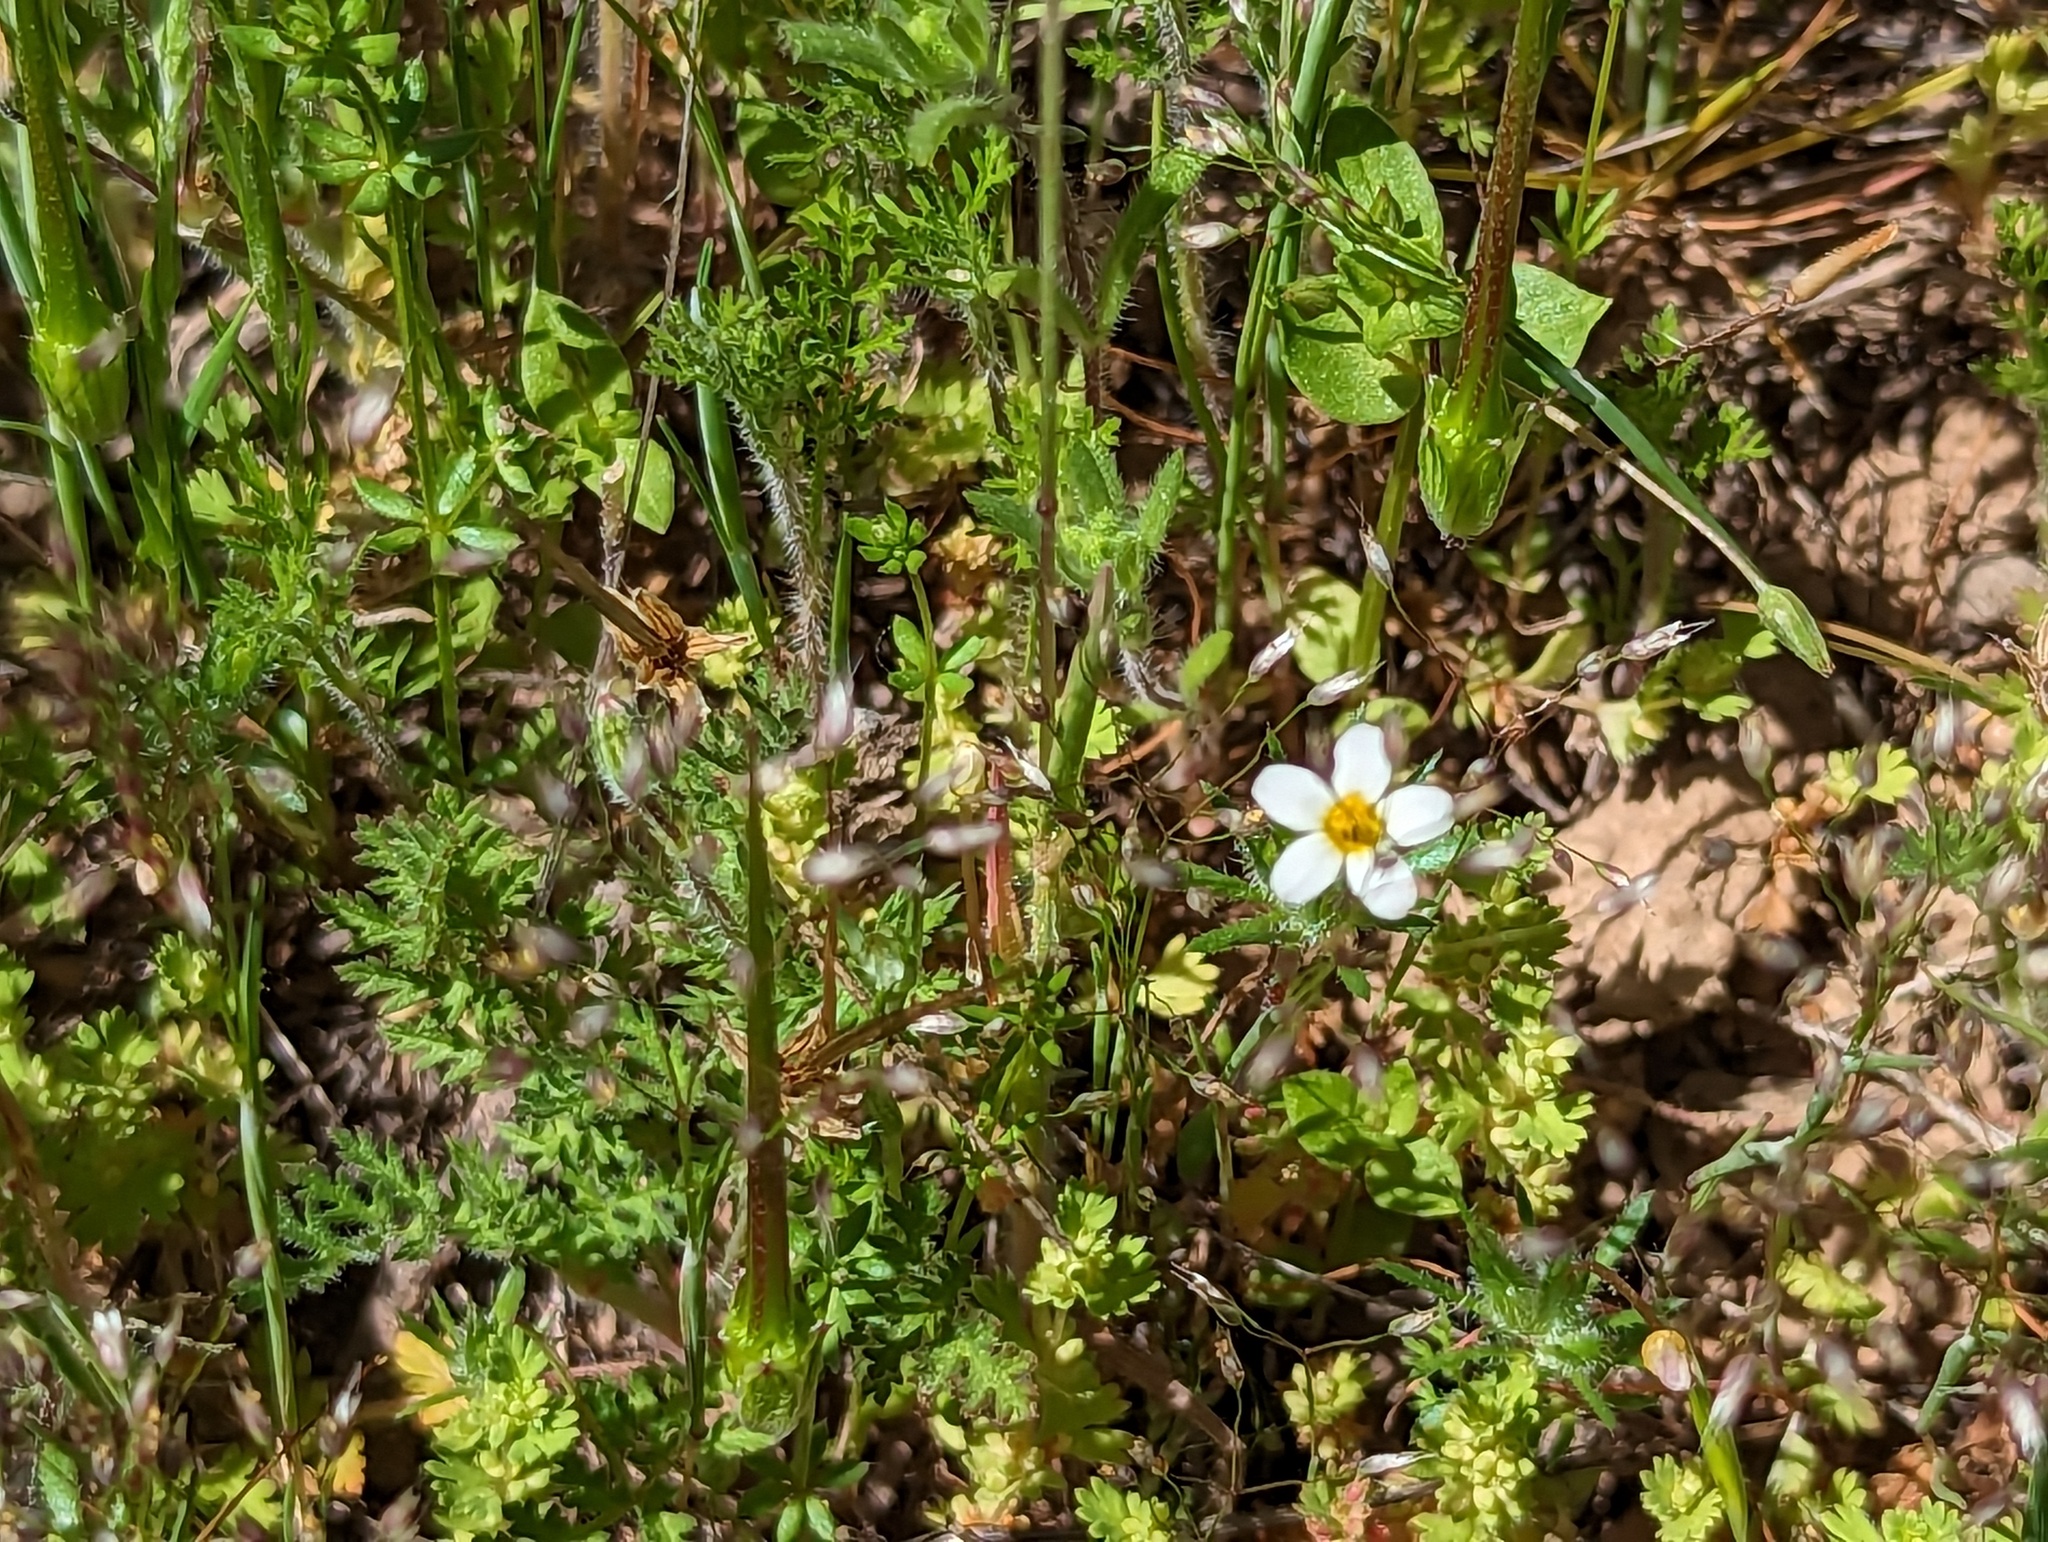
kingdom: Plantae
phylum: Tracheophyta
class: Magnoliopsida
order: Ericales
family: Polemoniaceae
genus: Leptosiphon
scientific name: Leptosiphon bicolor
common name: True babystars
